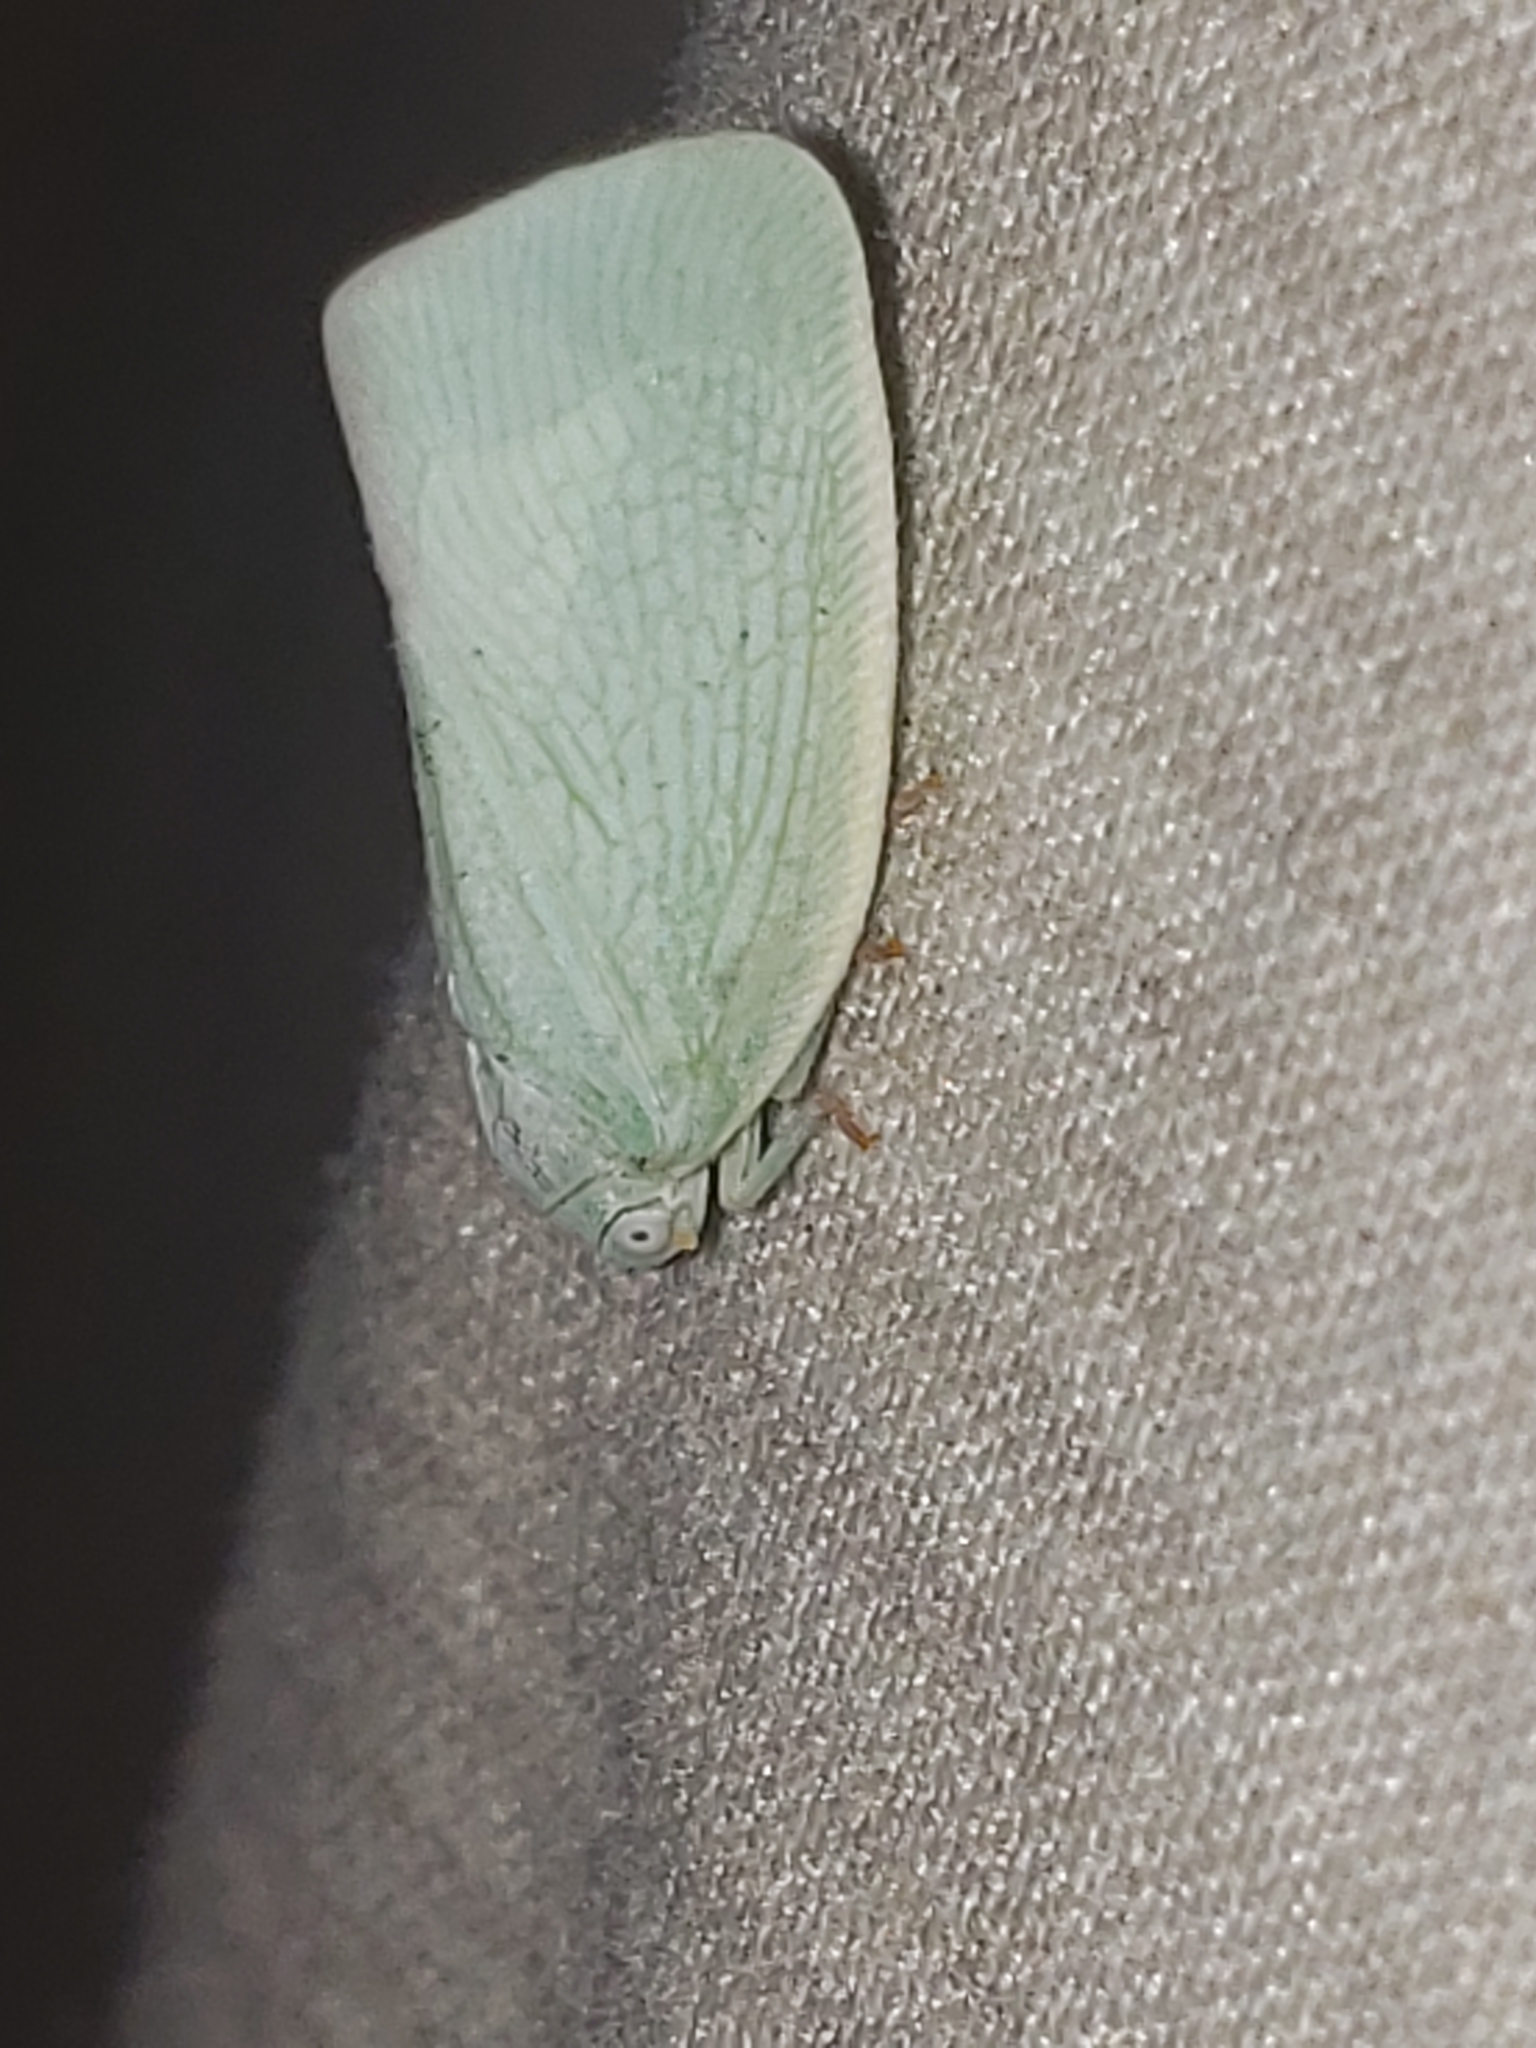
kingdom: Animalia
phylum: Arthropoda
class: Insecta
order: Hemiptera
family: Flatidae
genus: Flatormenis
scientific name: Flatormenis proxima
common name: Northern flatid planthopper
